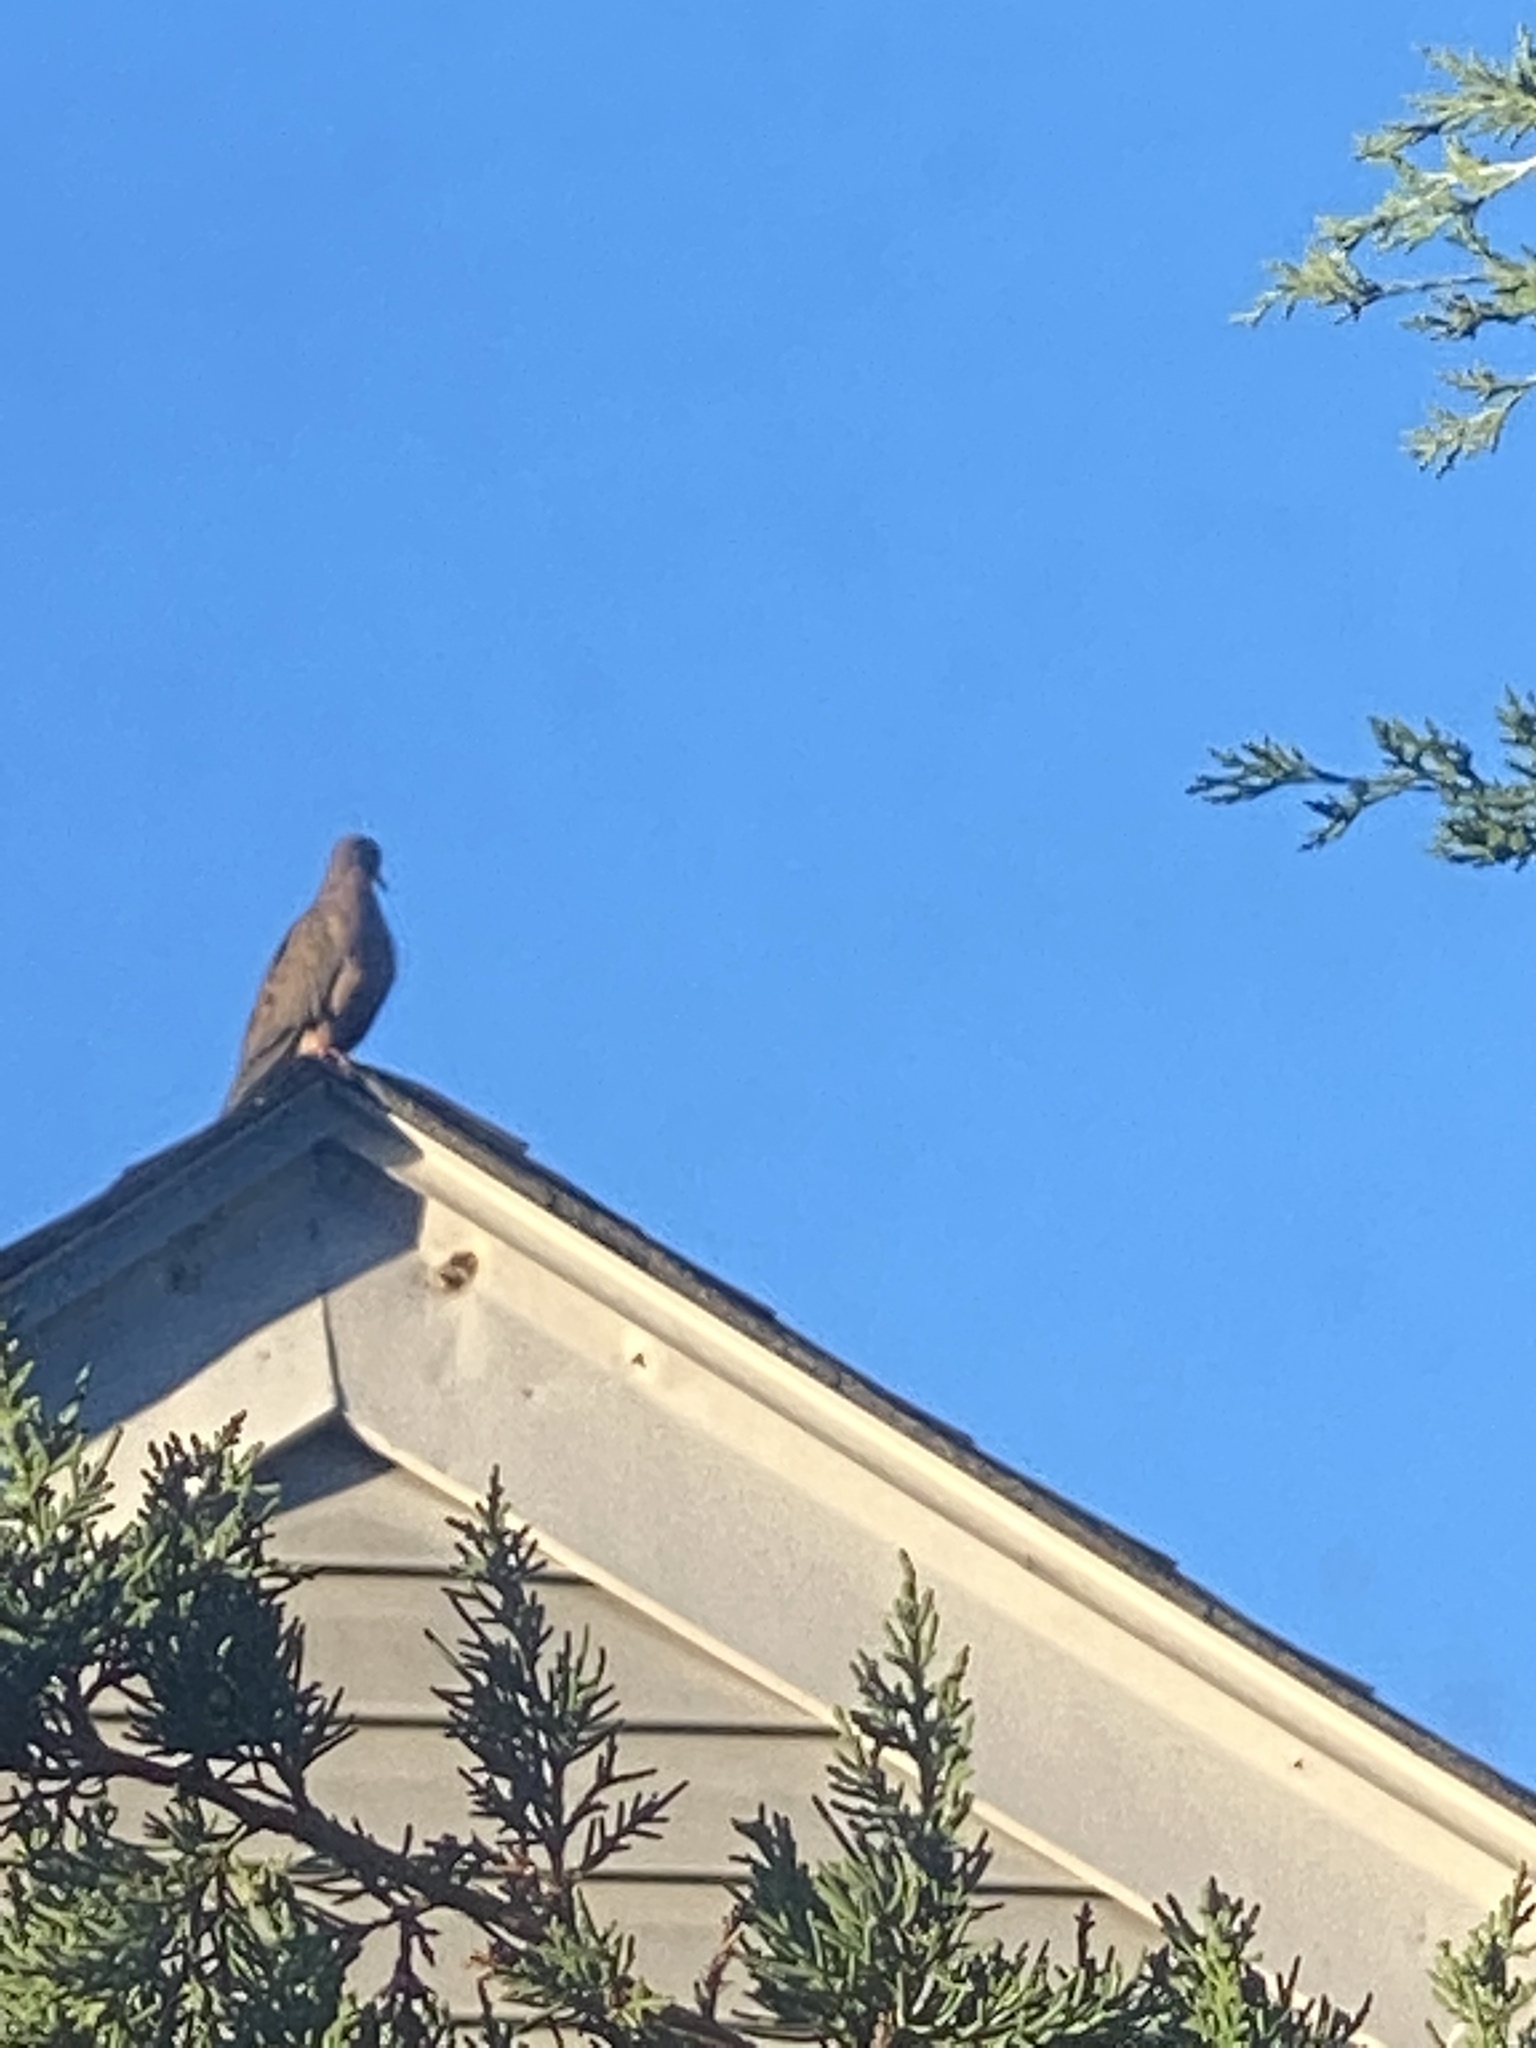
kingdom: Animalia
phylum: Chordata
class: Aves
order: Columbiformes
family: Columbidae
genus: Zenaida
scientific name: Zenaida macroura
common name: Mourning dove
